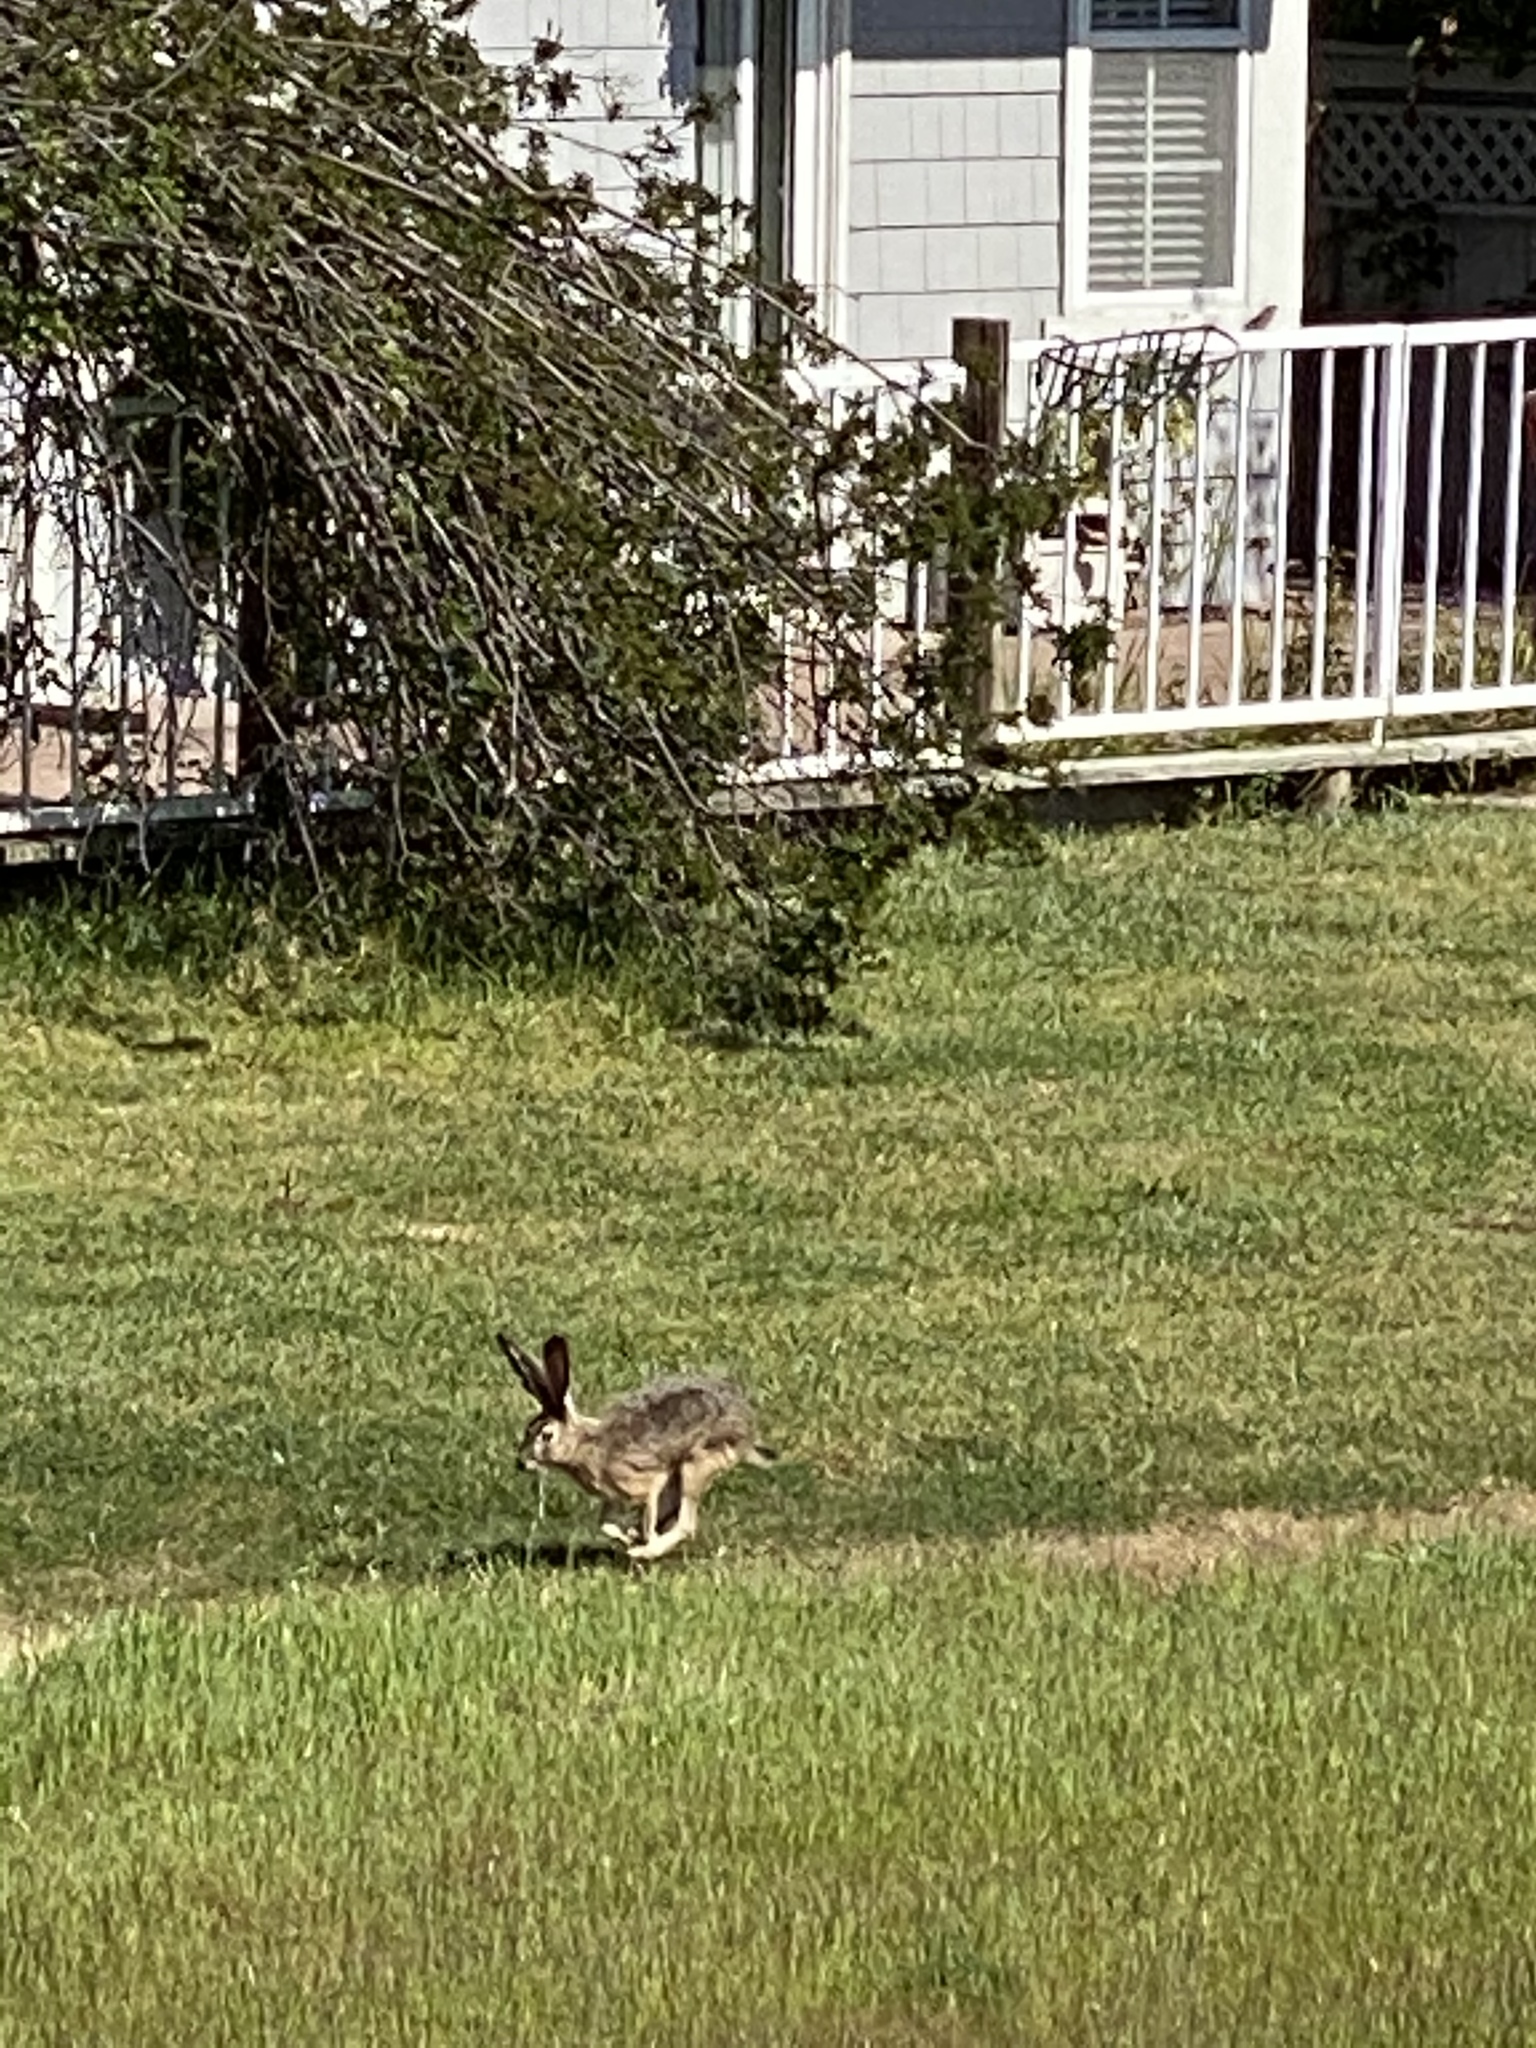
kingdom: Animalia
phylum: Chordata
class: Mammalia
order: Lagomorpha
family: Leporidae
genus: Lepus
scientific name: Lepus californicus
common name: Black-tailed jackrabbit
